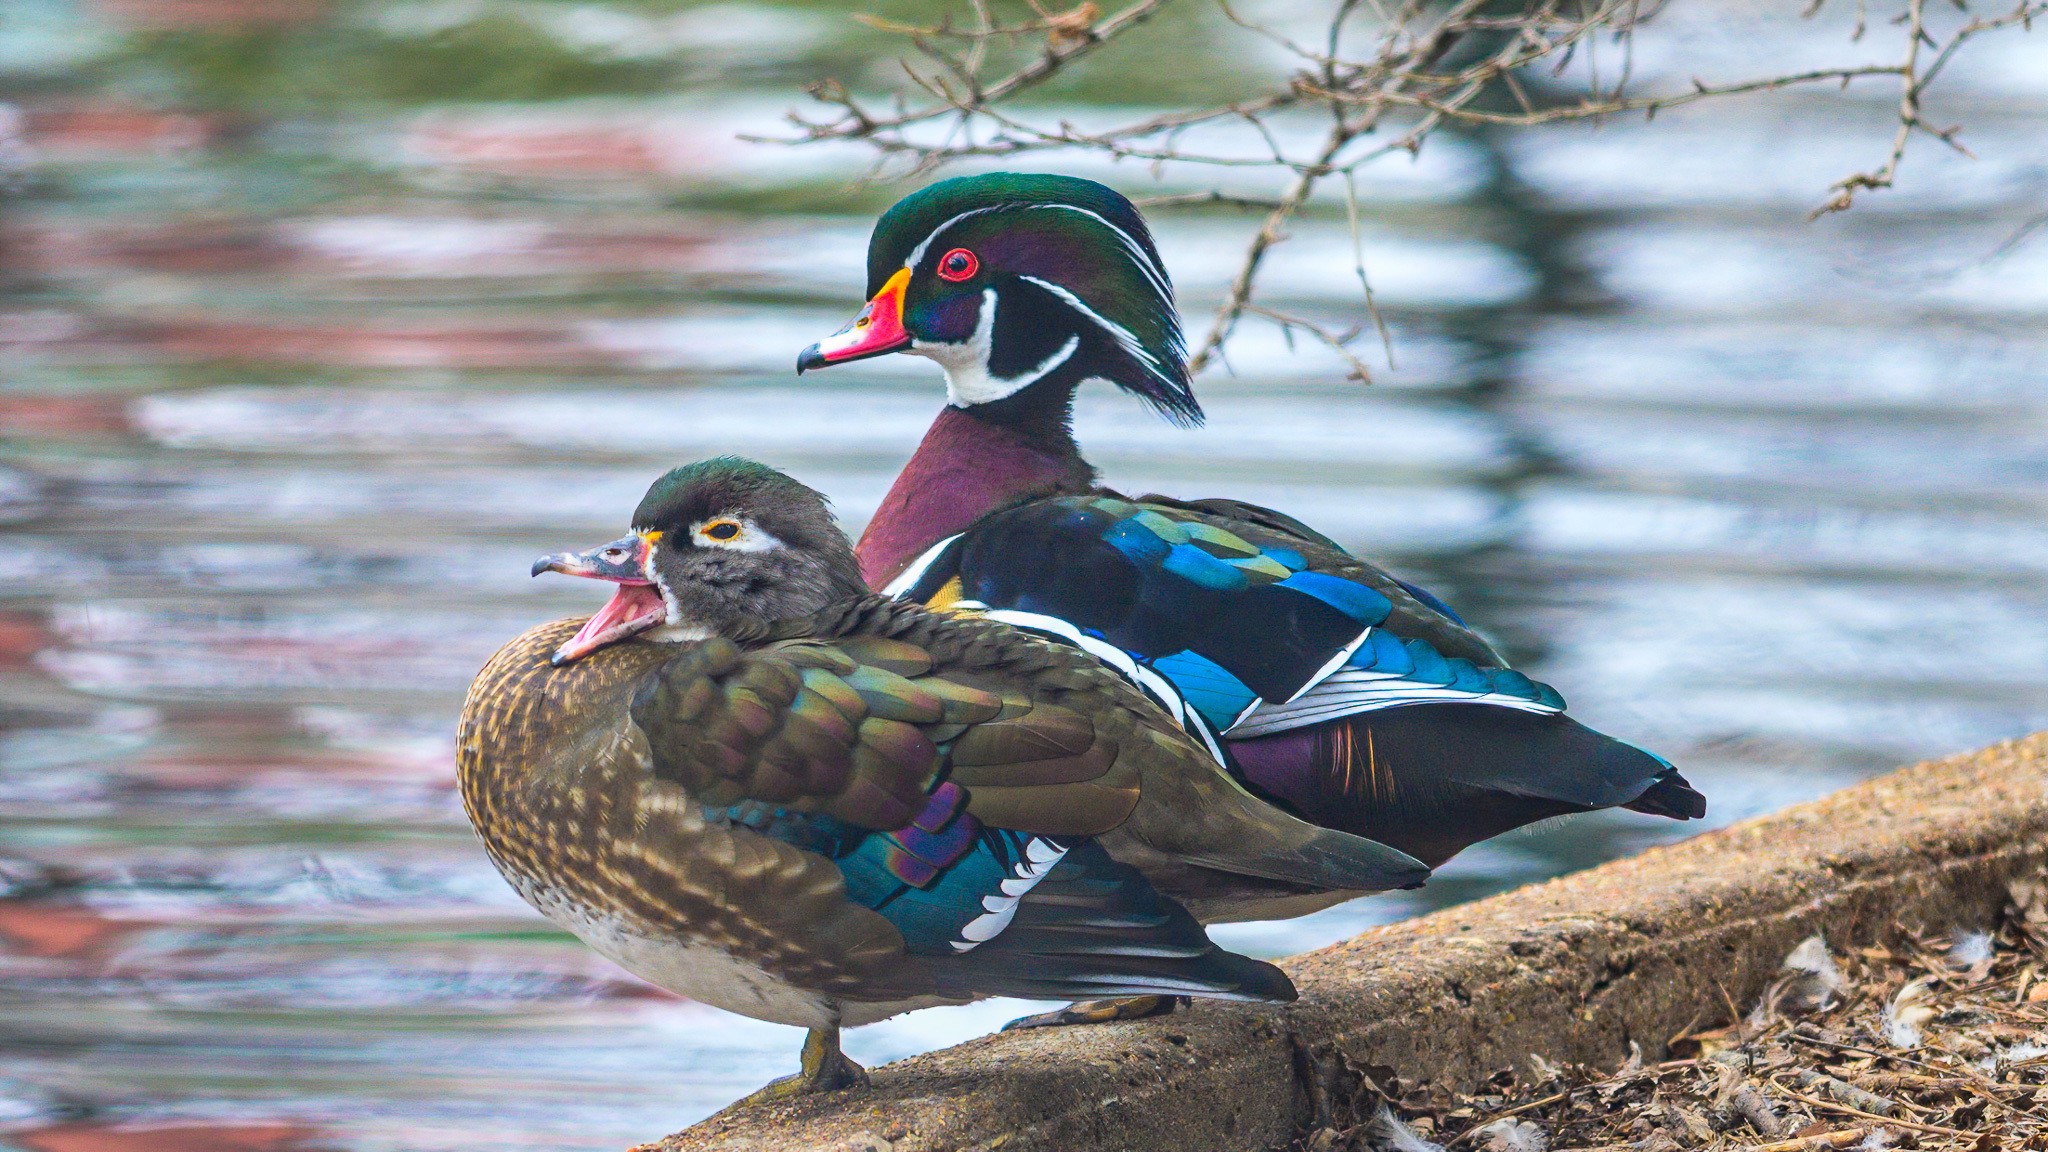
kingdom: Animalia
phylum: Chordata
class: Aves
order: Anseriformes
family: Anatidae
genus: Aix
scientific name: Aix sponsa
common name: Wood duck
